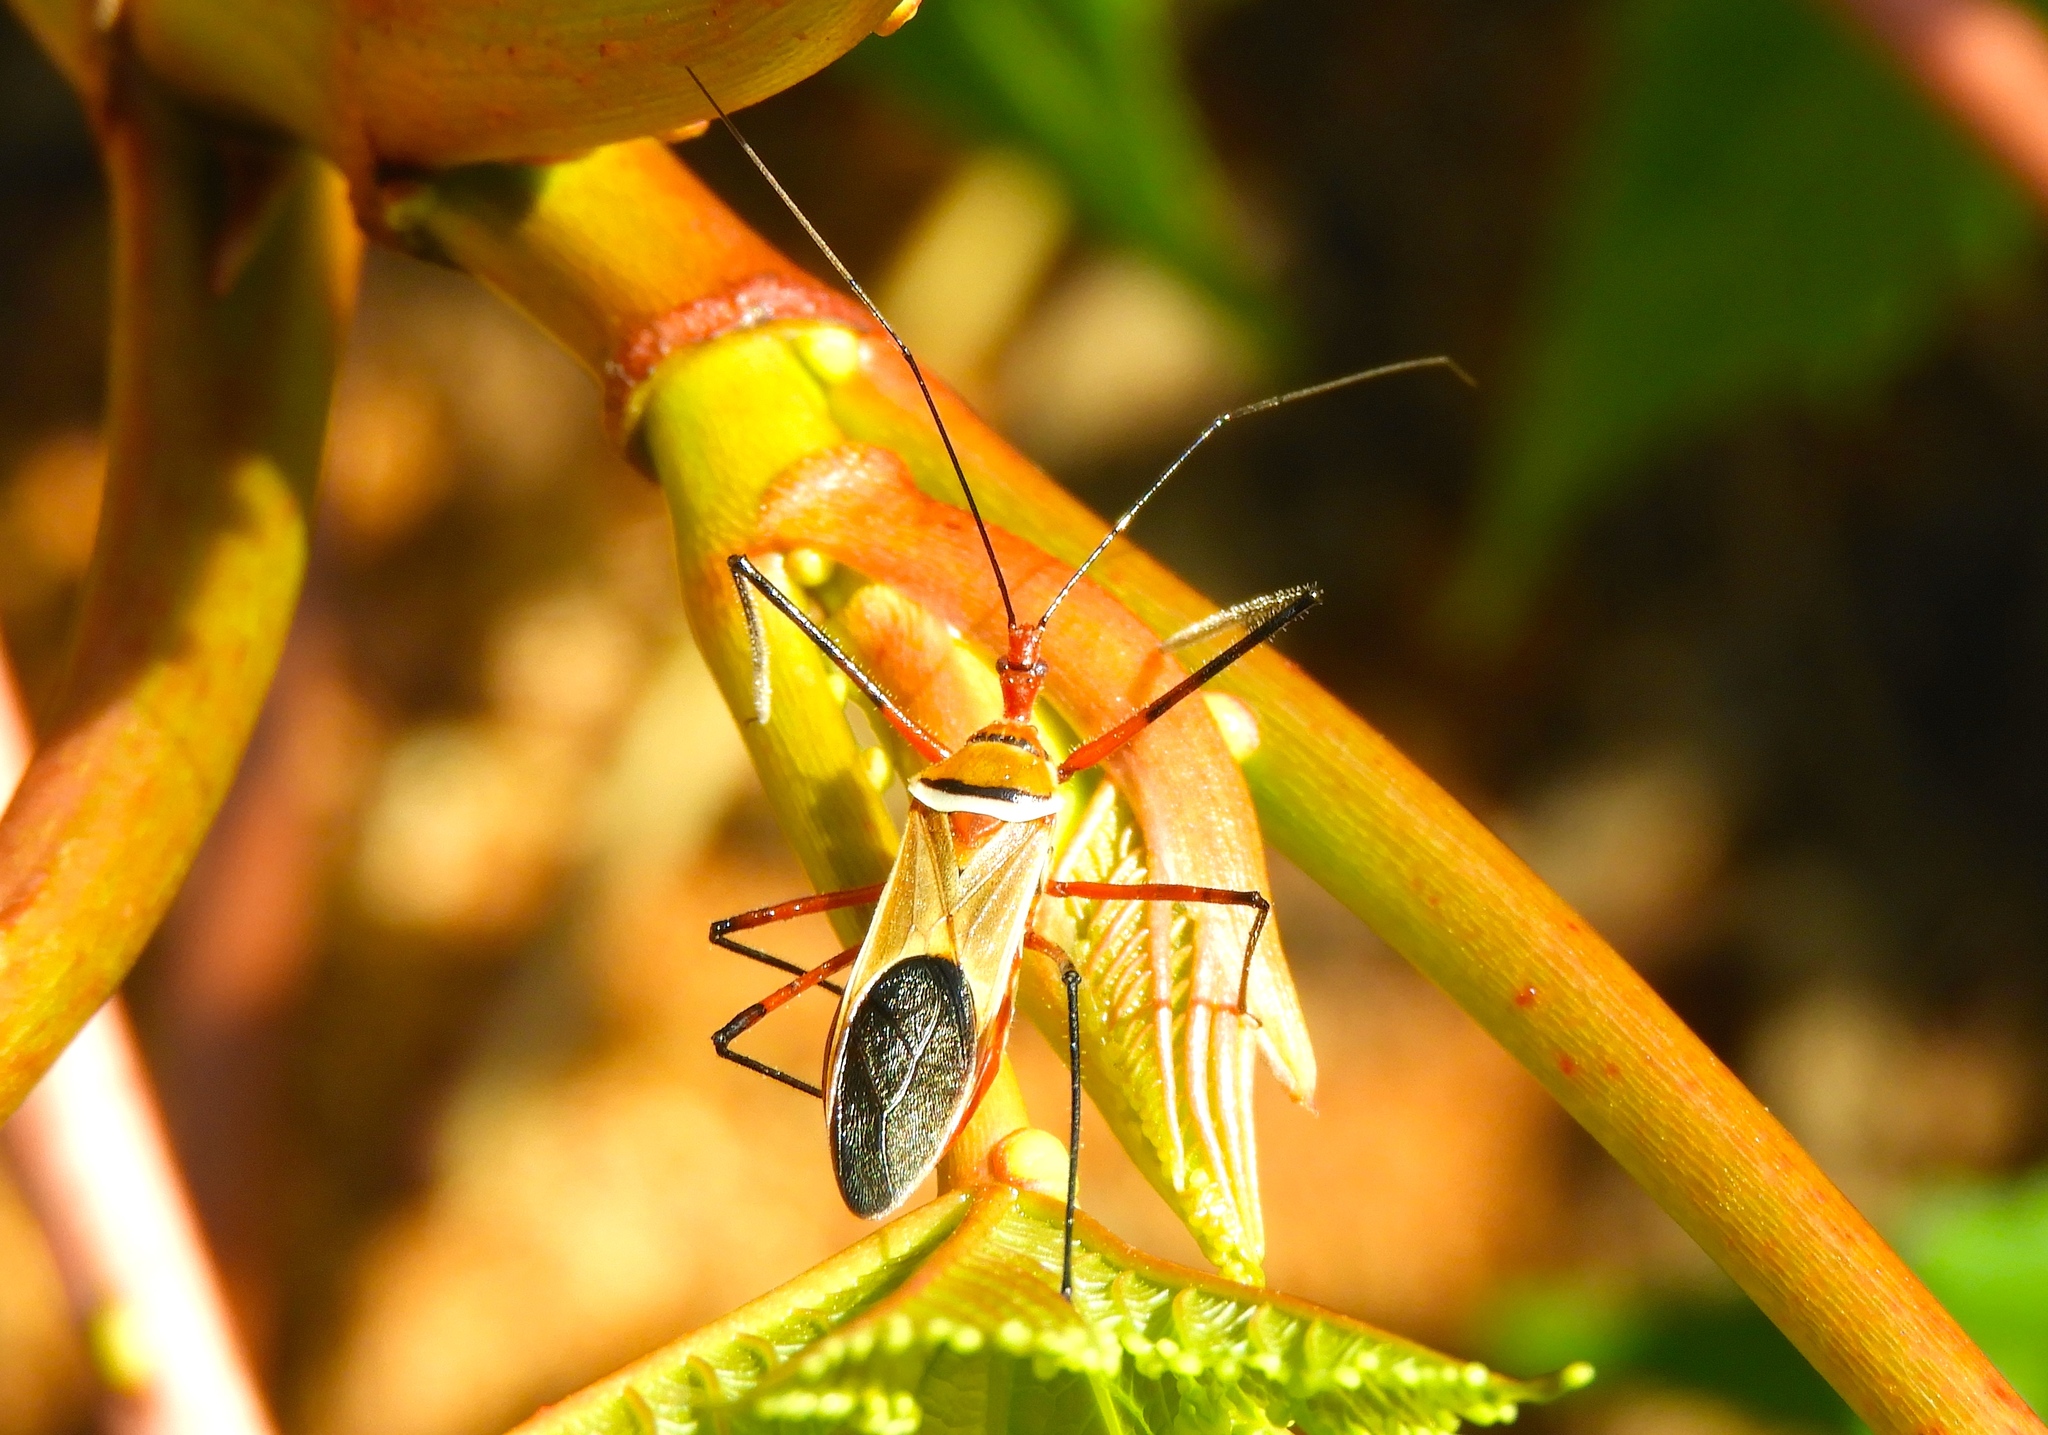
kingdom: Animalia
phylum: Arthropoda
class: Insecta
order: Hemiptera
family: Reduviidae
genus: Zelus
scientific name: Zelus grassans
